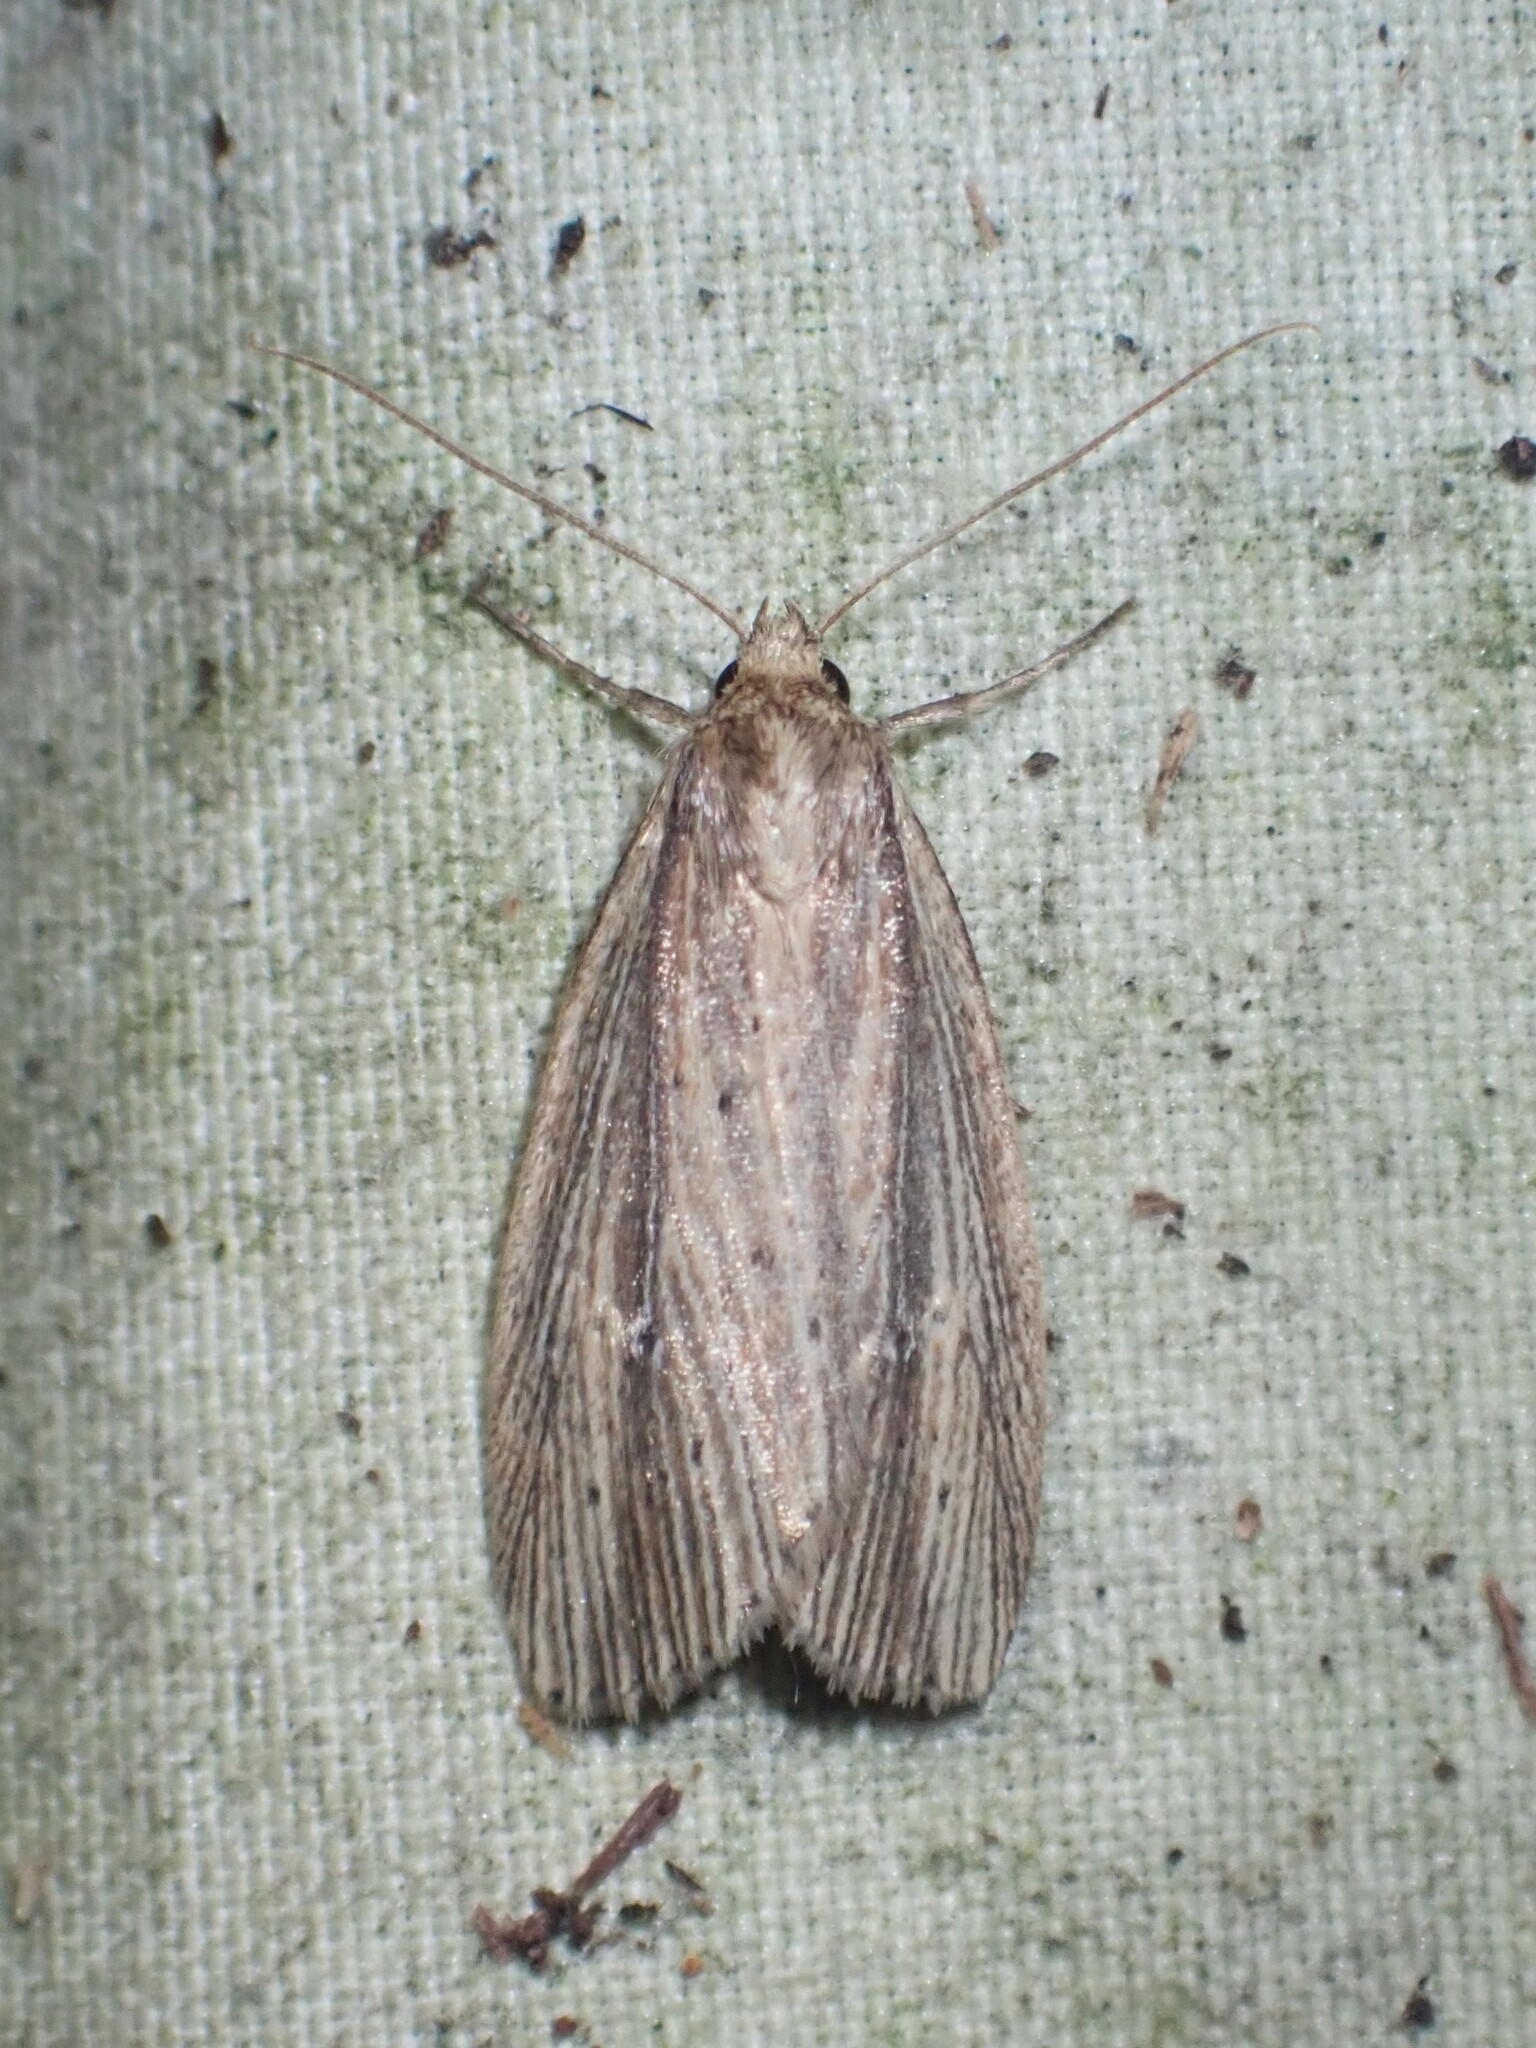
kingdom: Animalia
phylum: Arthropoda
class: Insecta
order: Lepidoptera
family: Noctuidae
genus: Photedes
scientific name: Photedes defecta
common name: Narrow-winged borer moth
